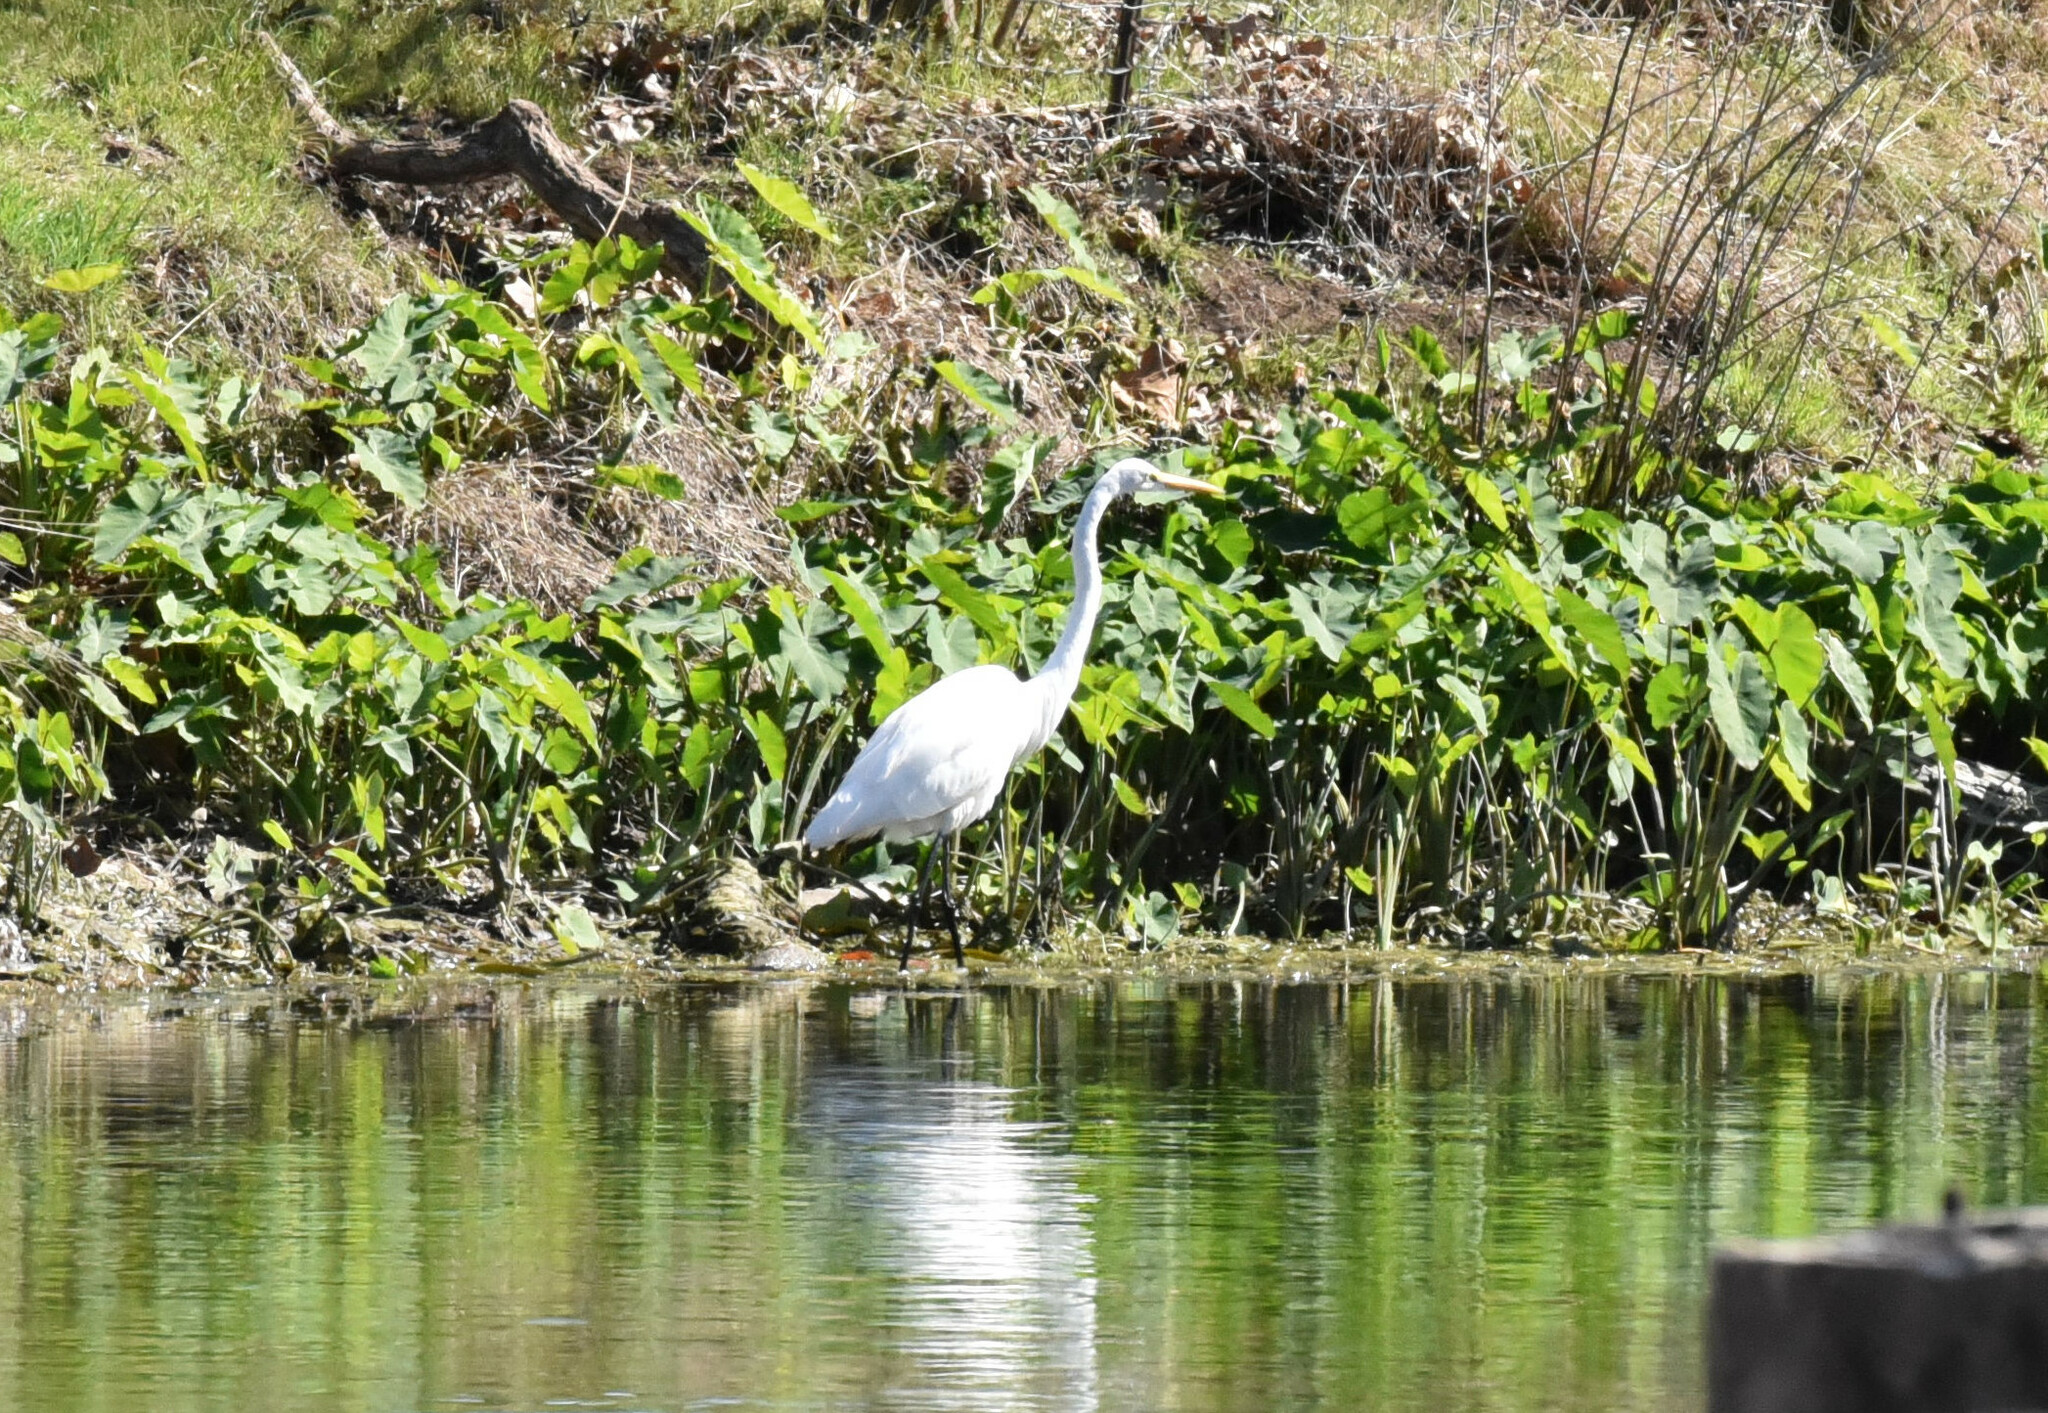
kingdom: Animalia
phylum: Chordata
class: Aves
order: Pelecaniformes
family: Ardeidae
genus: Ardea
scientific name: Ardea alba
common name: Great egret
